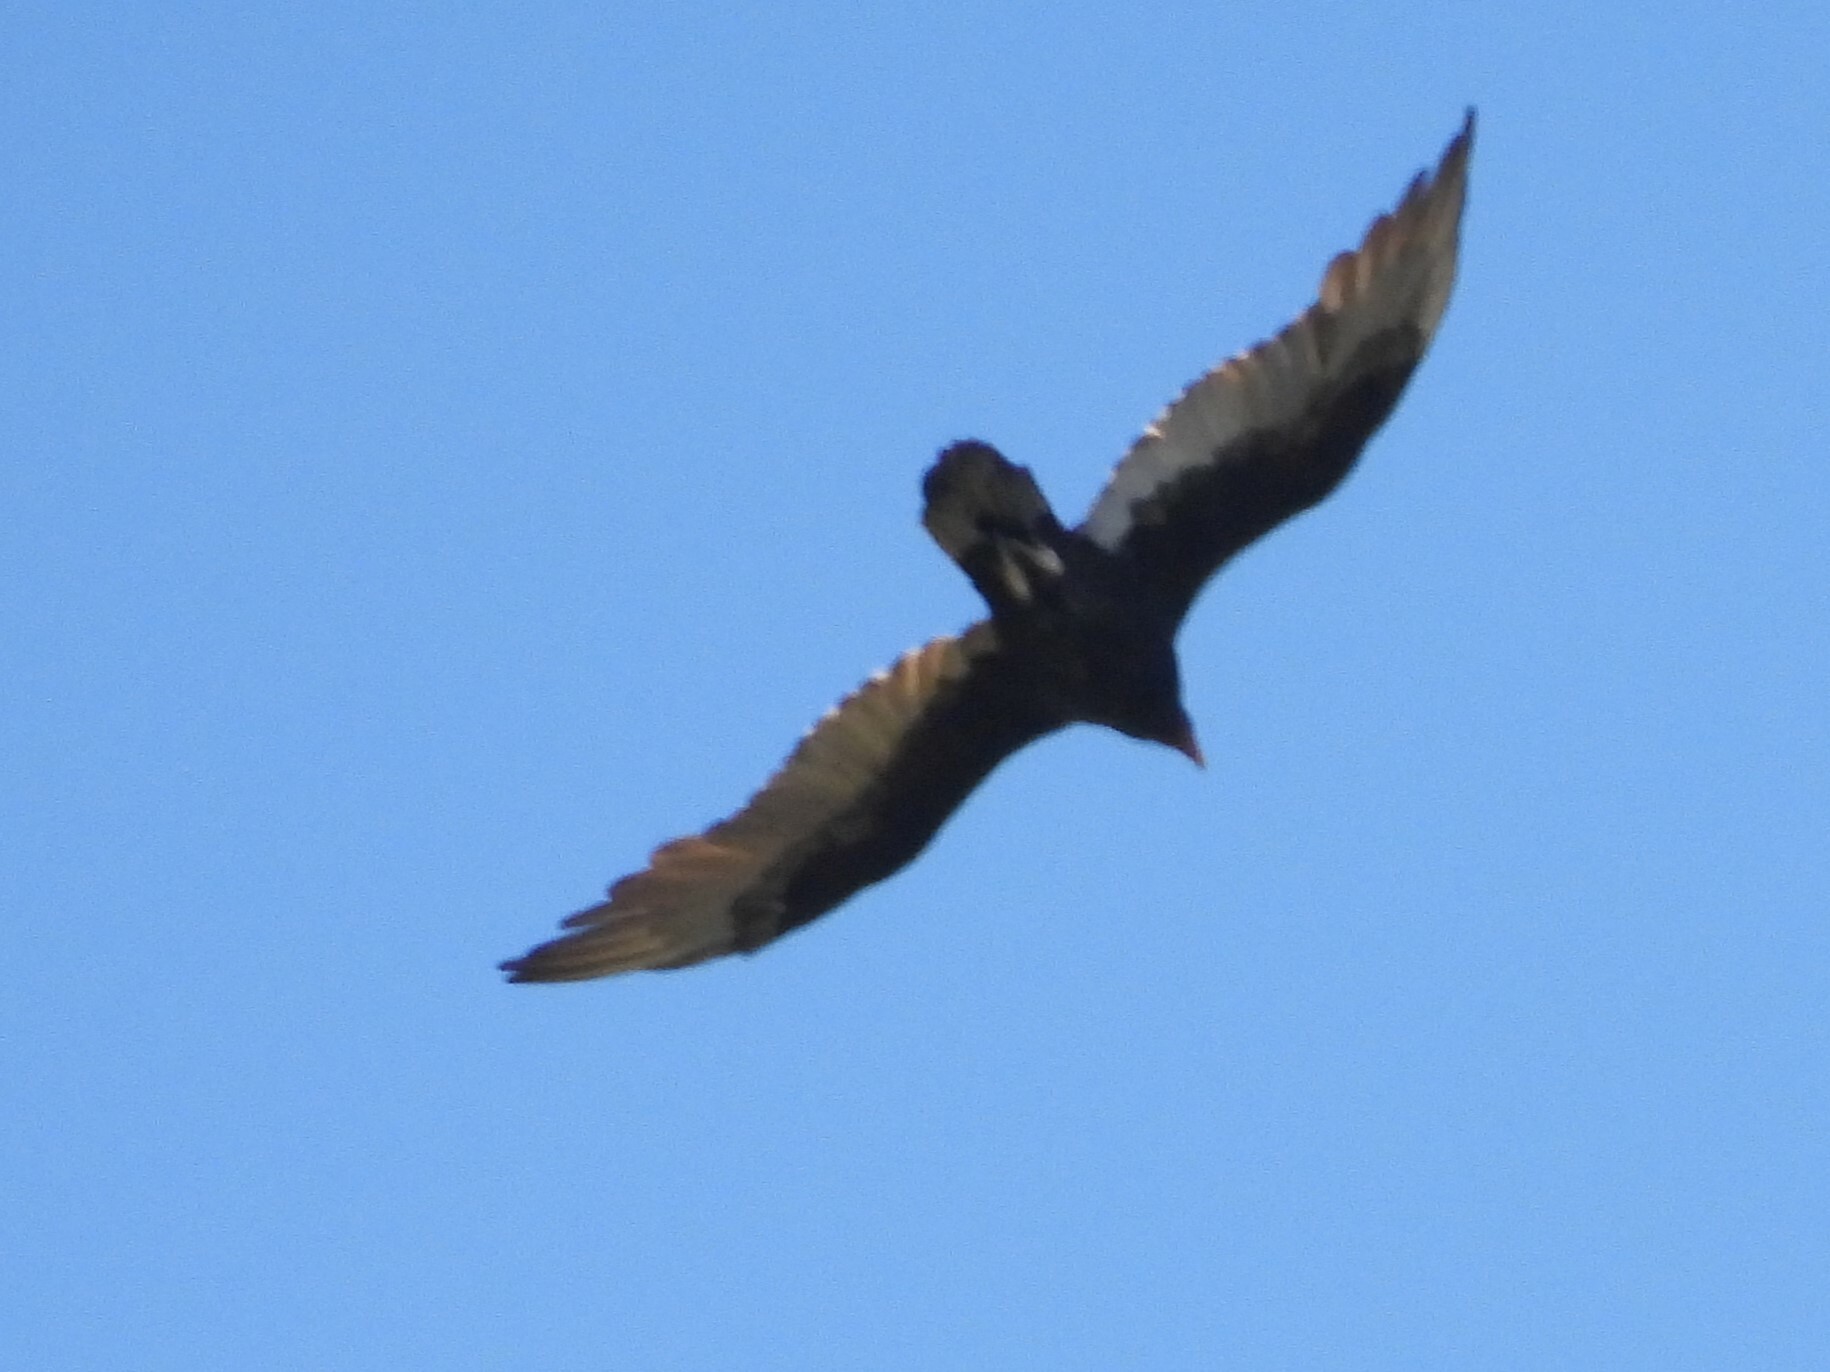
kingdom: Animalia
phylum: Chordata
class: Aves
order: Accipitriformes
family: Cathartidae
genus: Cathartes
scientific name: Cathartes aura
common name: Turkey vulture
